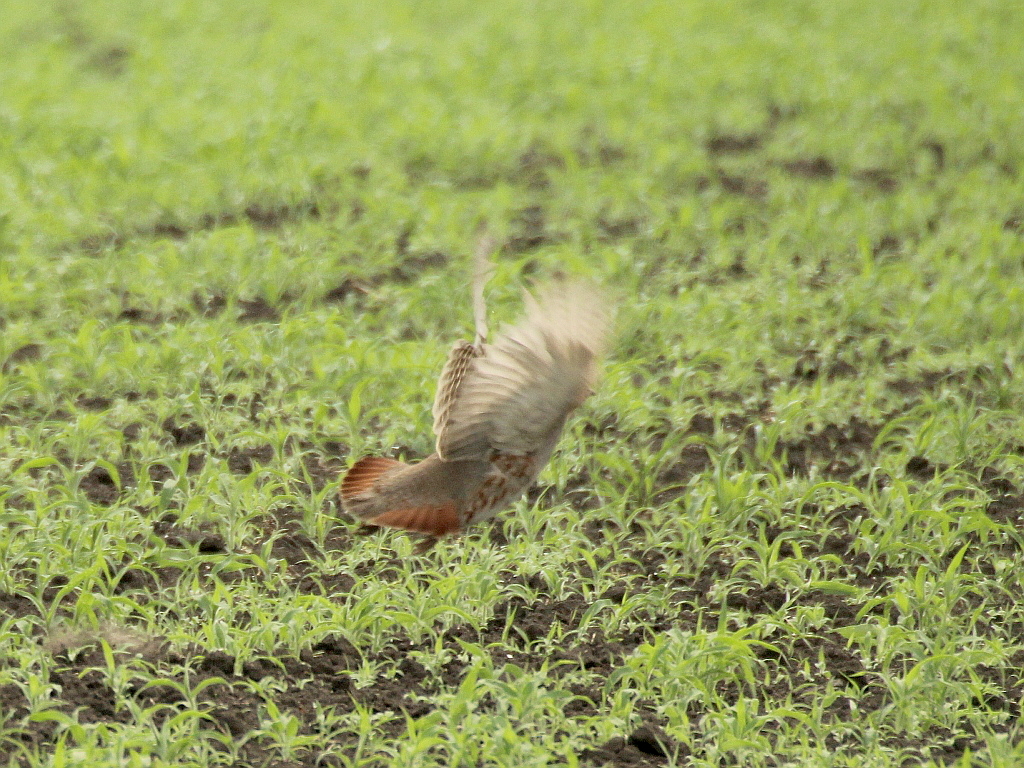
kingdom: Animalia
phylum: Chordata
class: Aves
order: Galliformes
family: Phasianidae
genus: Perdix
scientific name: Perdix perdix
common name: Grey partridge
